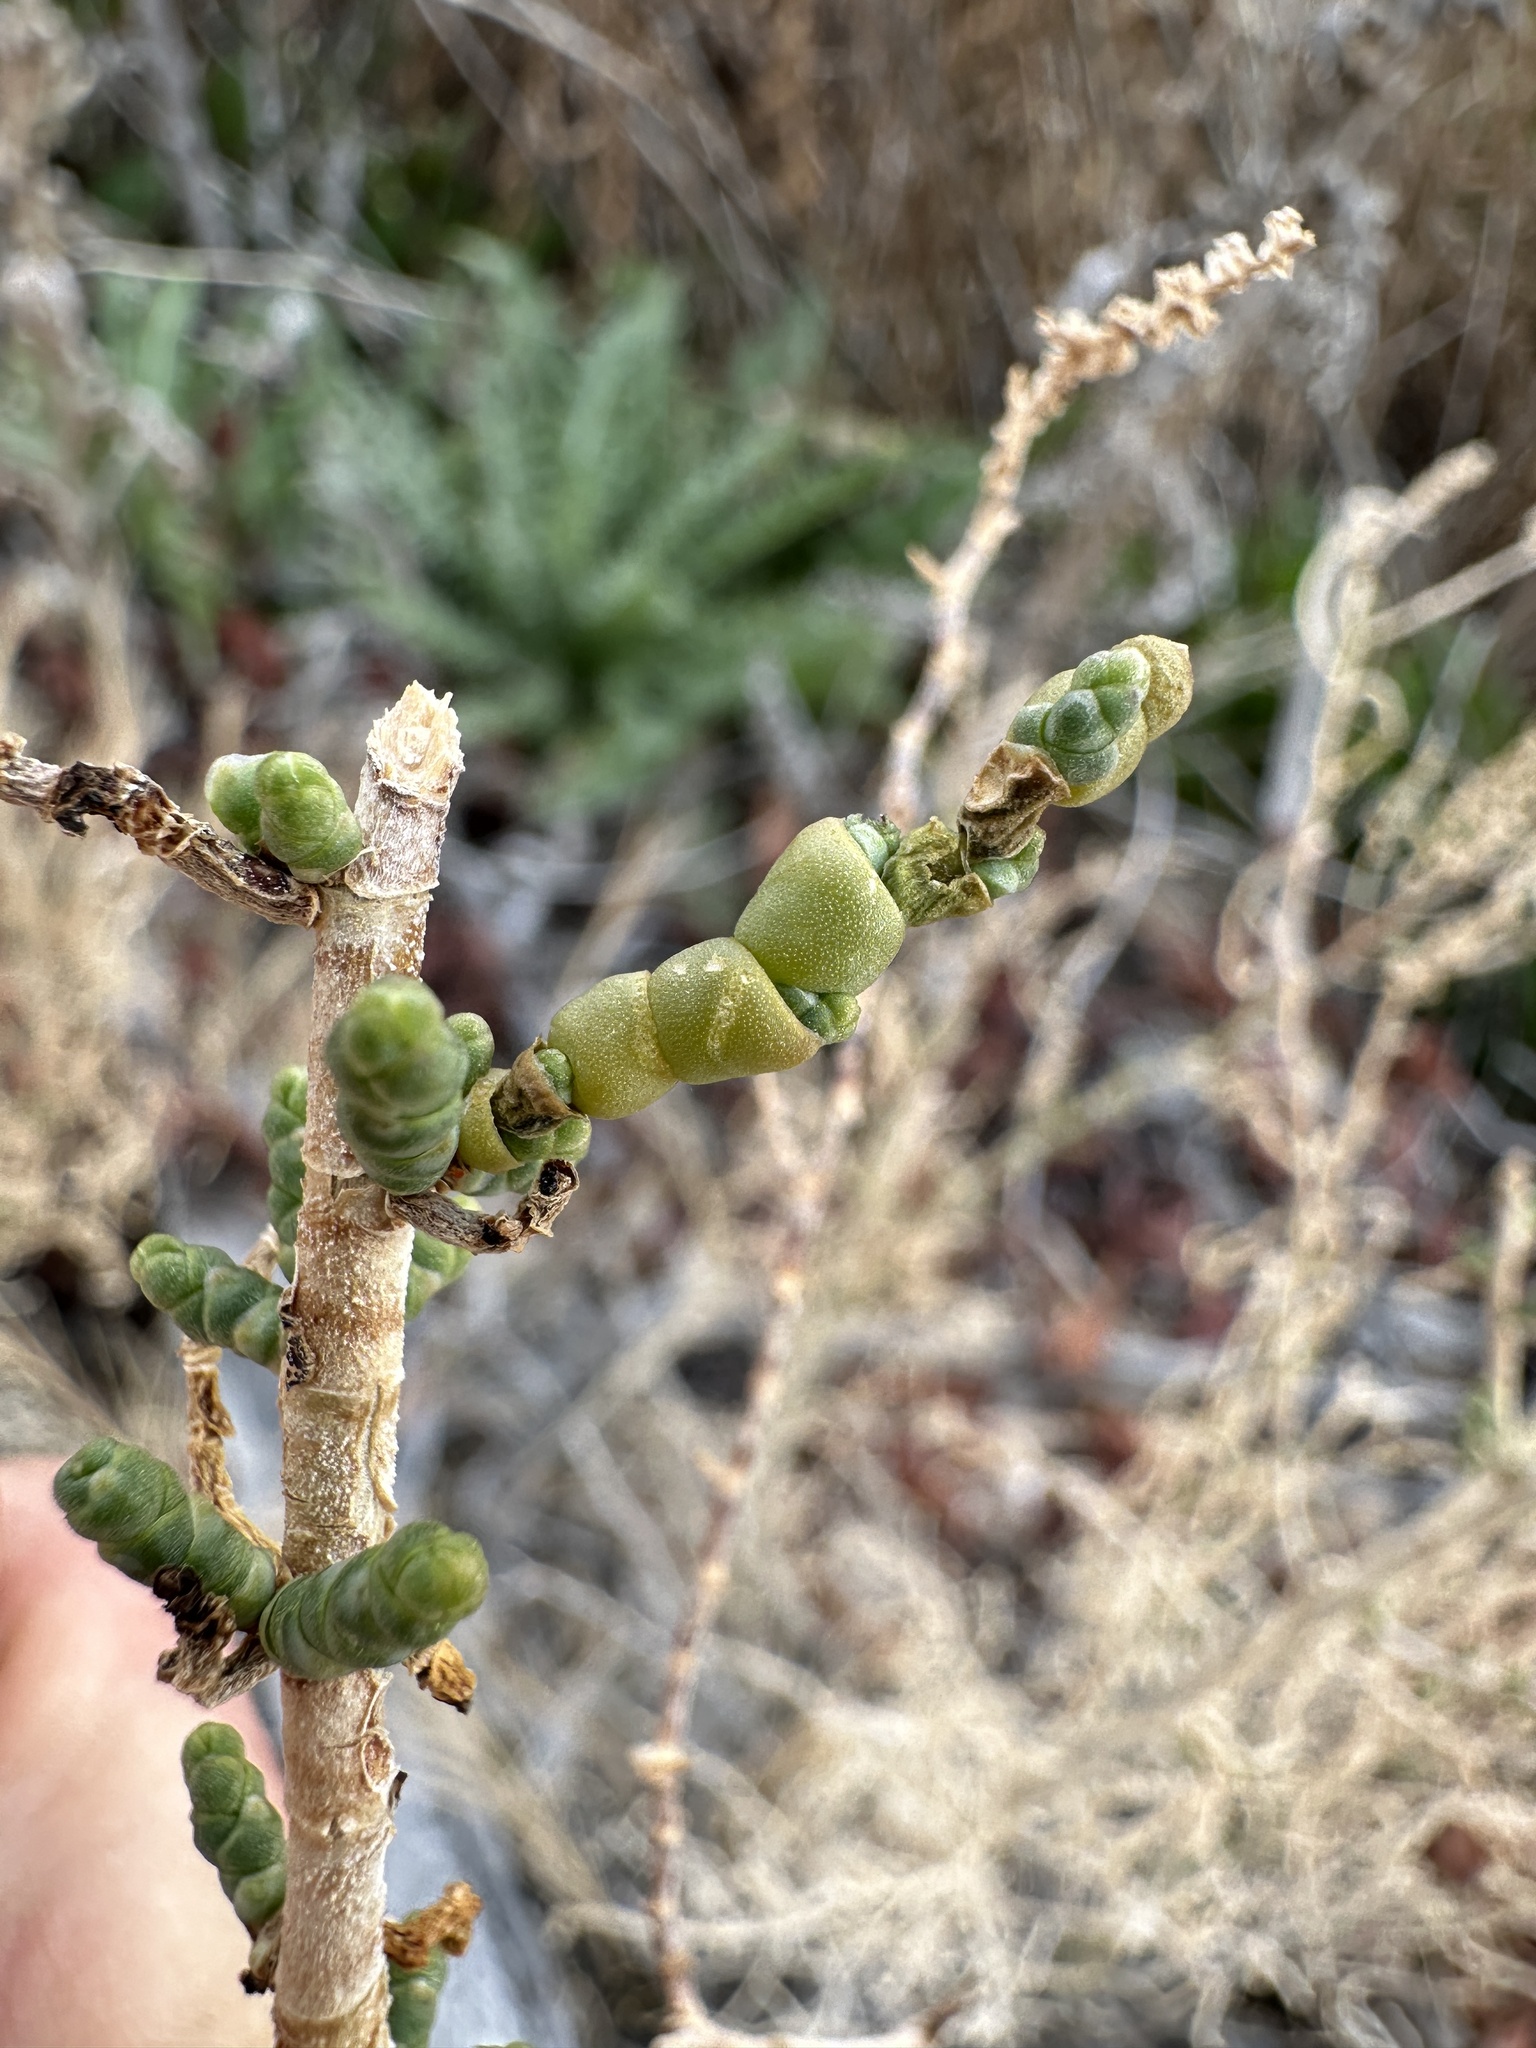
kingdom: Plantae
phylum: Tracheophyta
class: Magnoliopsida
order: Caryophyllales
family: Amaranthaceae
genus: Allenrolfea
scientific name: Allenrolfea occidentalis
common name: Iodine-bush
